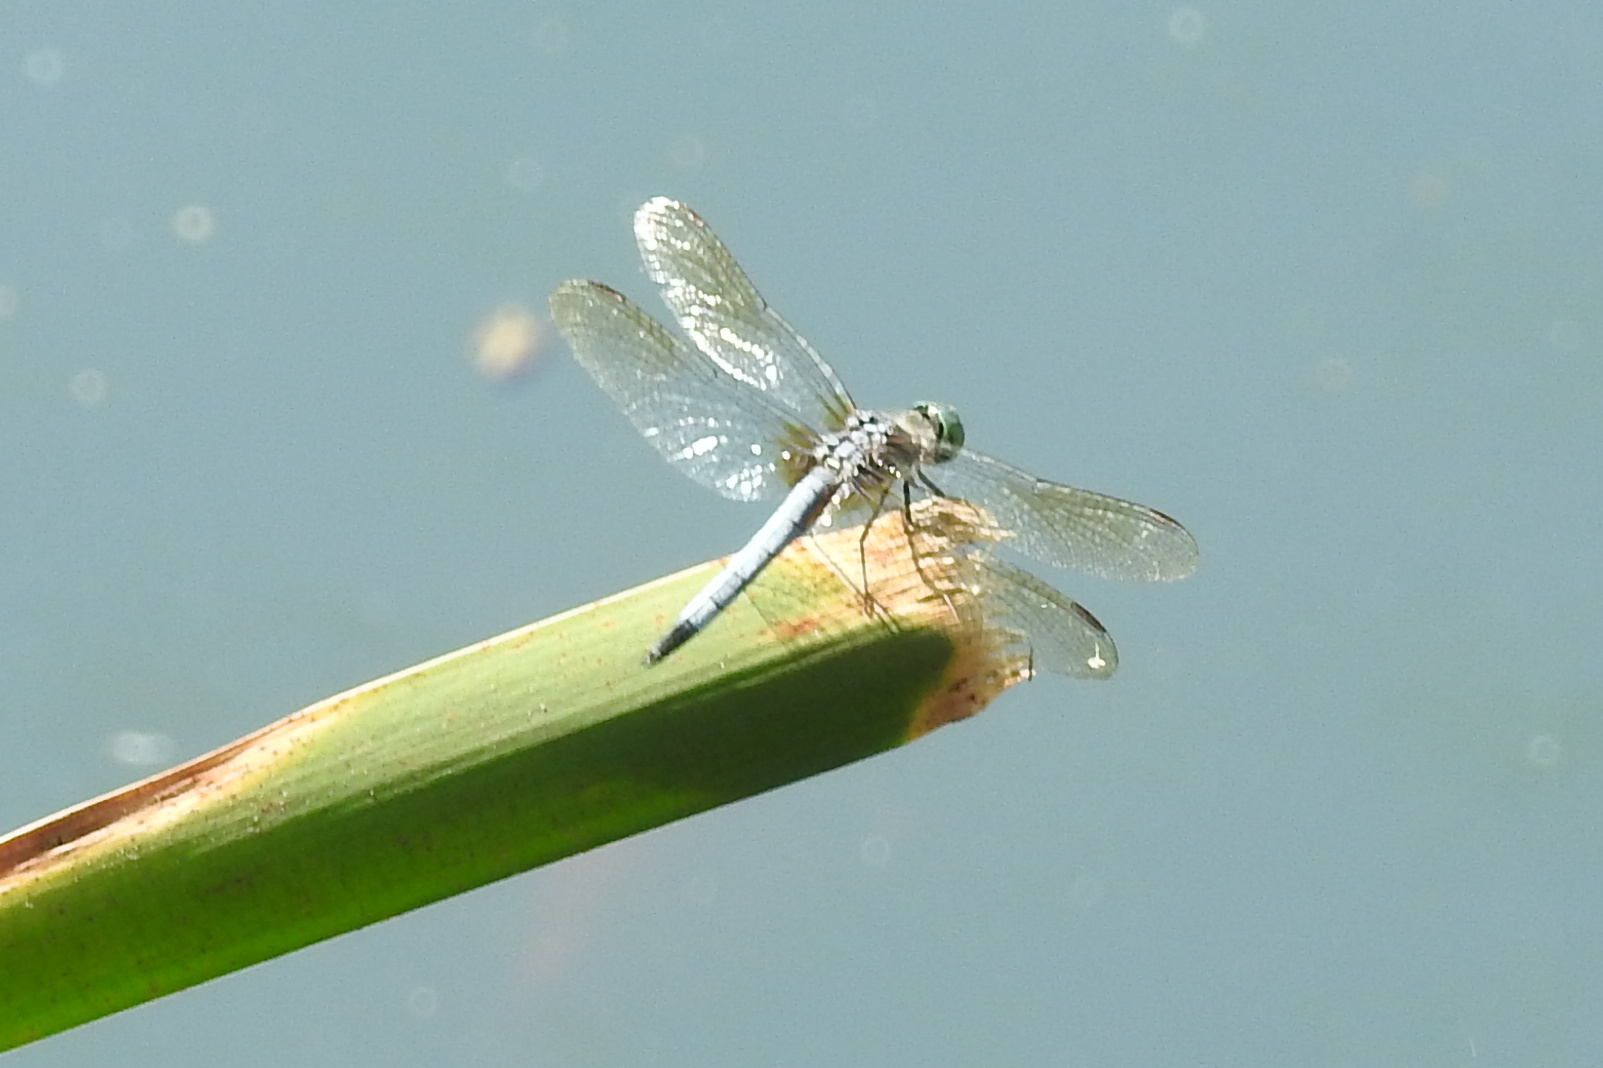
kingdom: Animalia
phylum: Arthropoda
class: Insecta
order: Odonata
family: Libellulidae
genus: Pachydiplax
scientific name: Pachydiplax longipennis
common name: Blue dasher
